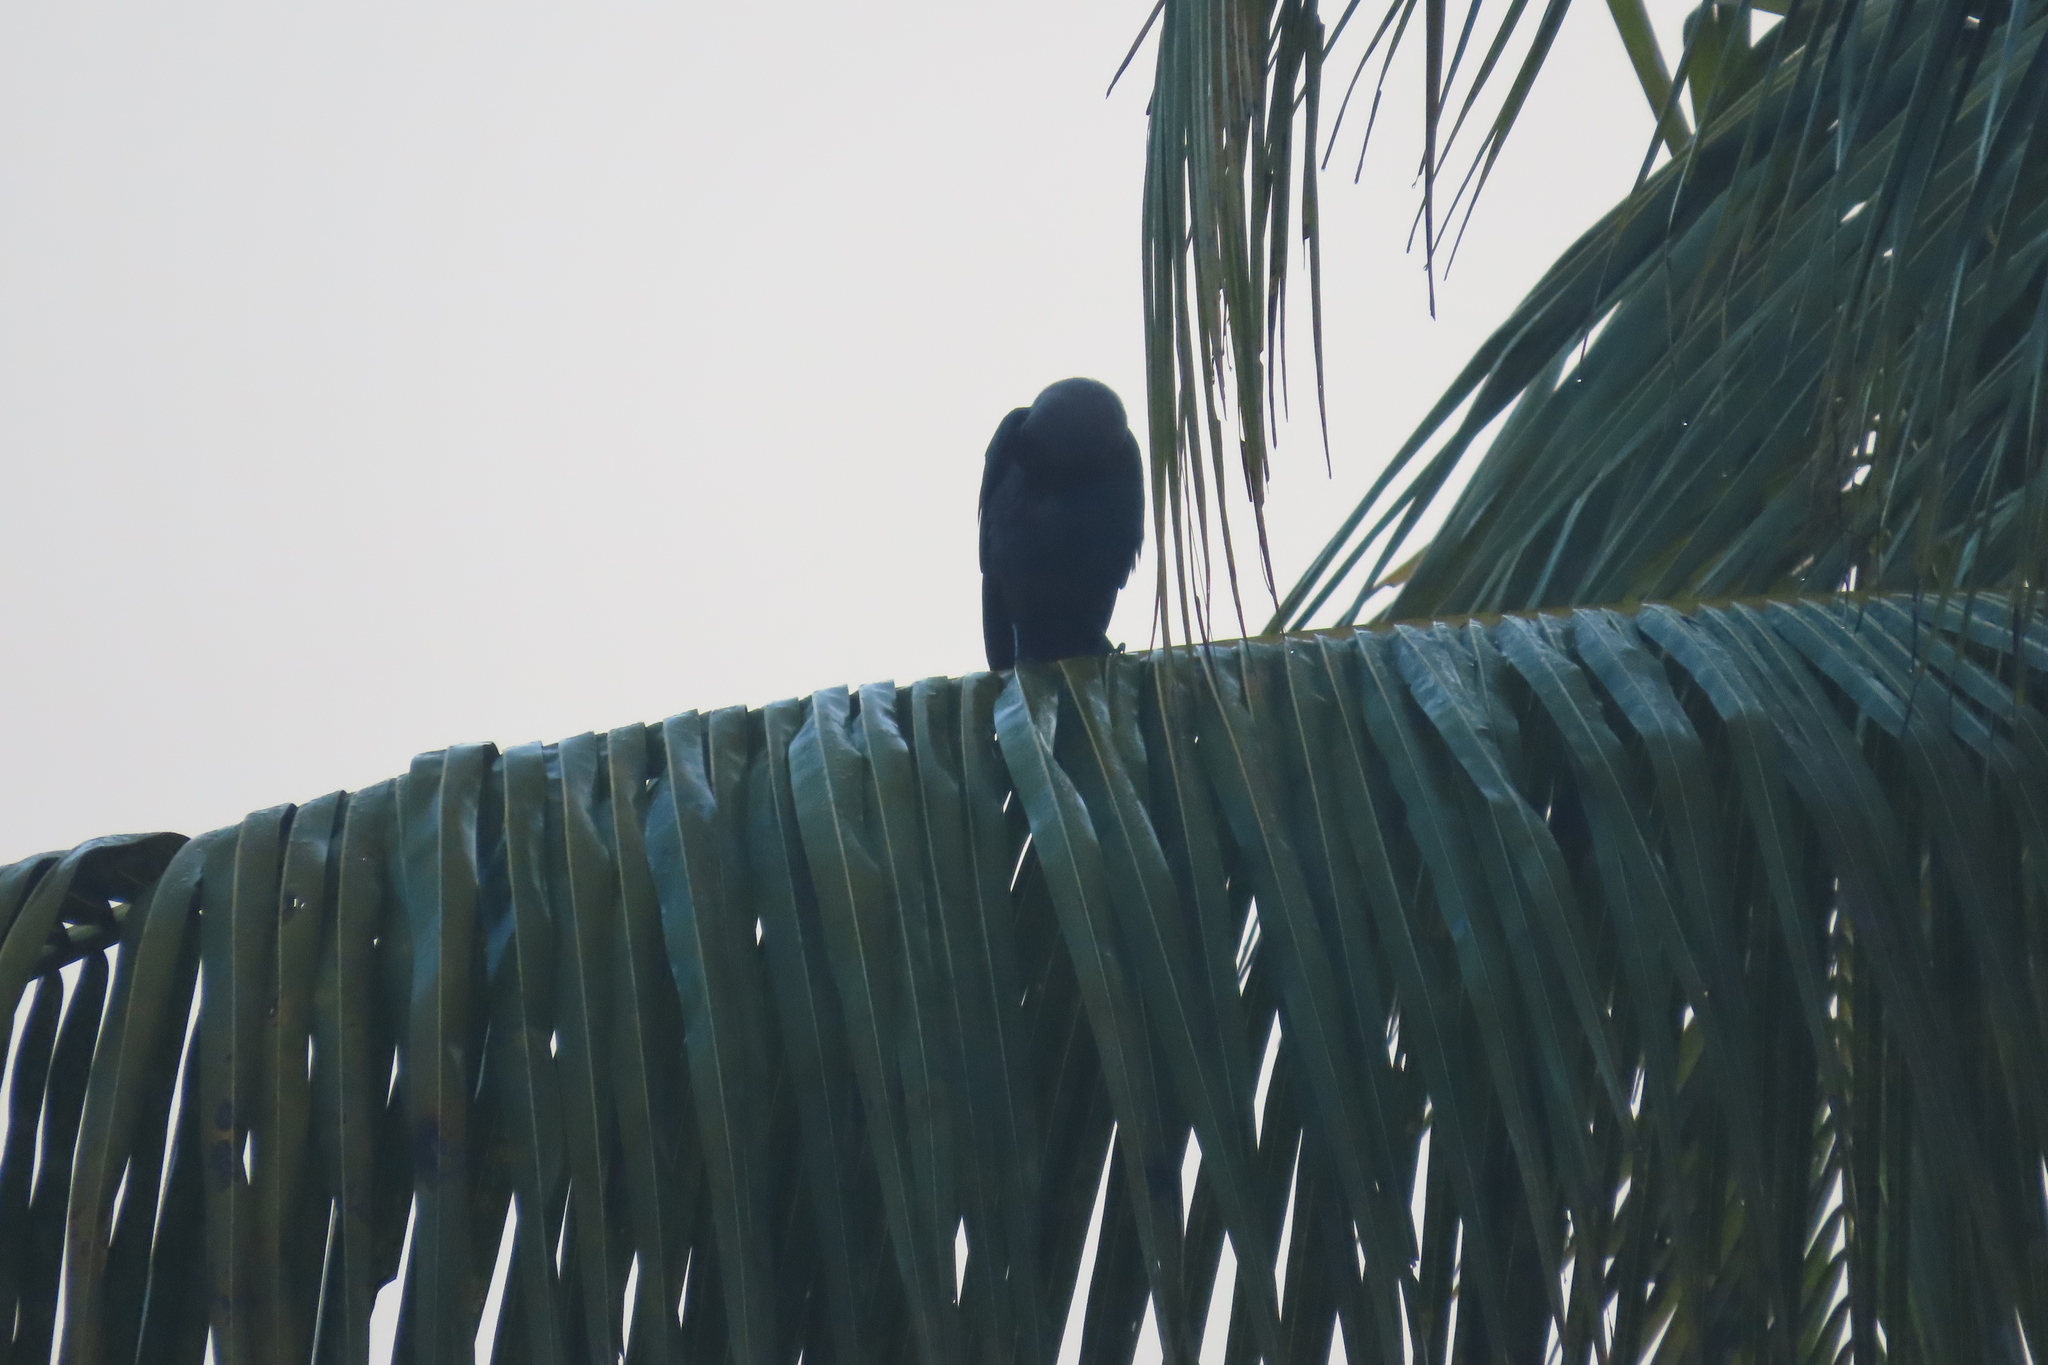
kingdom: Animalia
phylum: Chordata
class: Aves
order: Passeriformes
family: Corvidae
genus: Corvus
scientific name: Corvus splendens
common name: House crow
